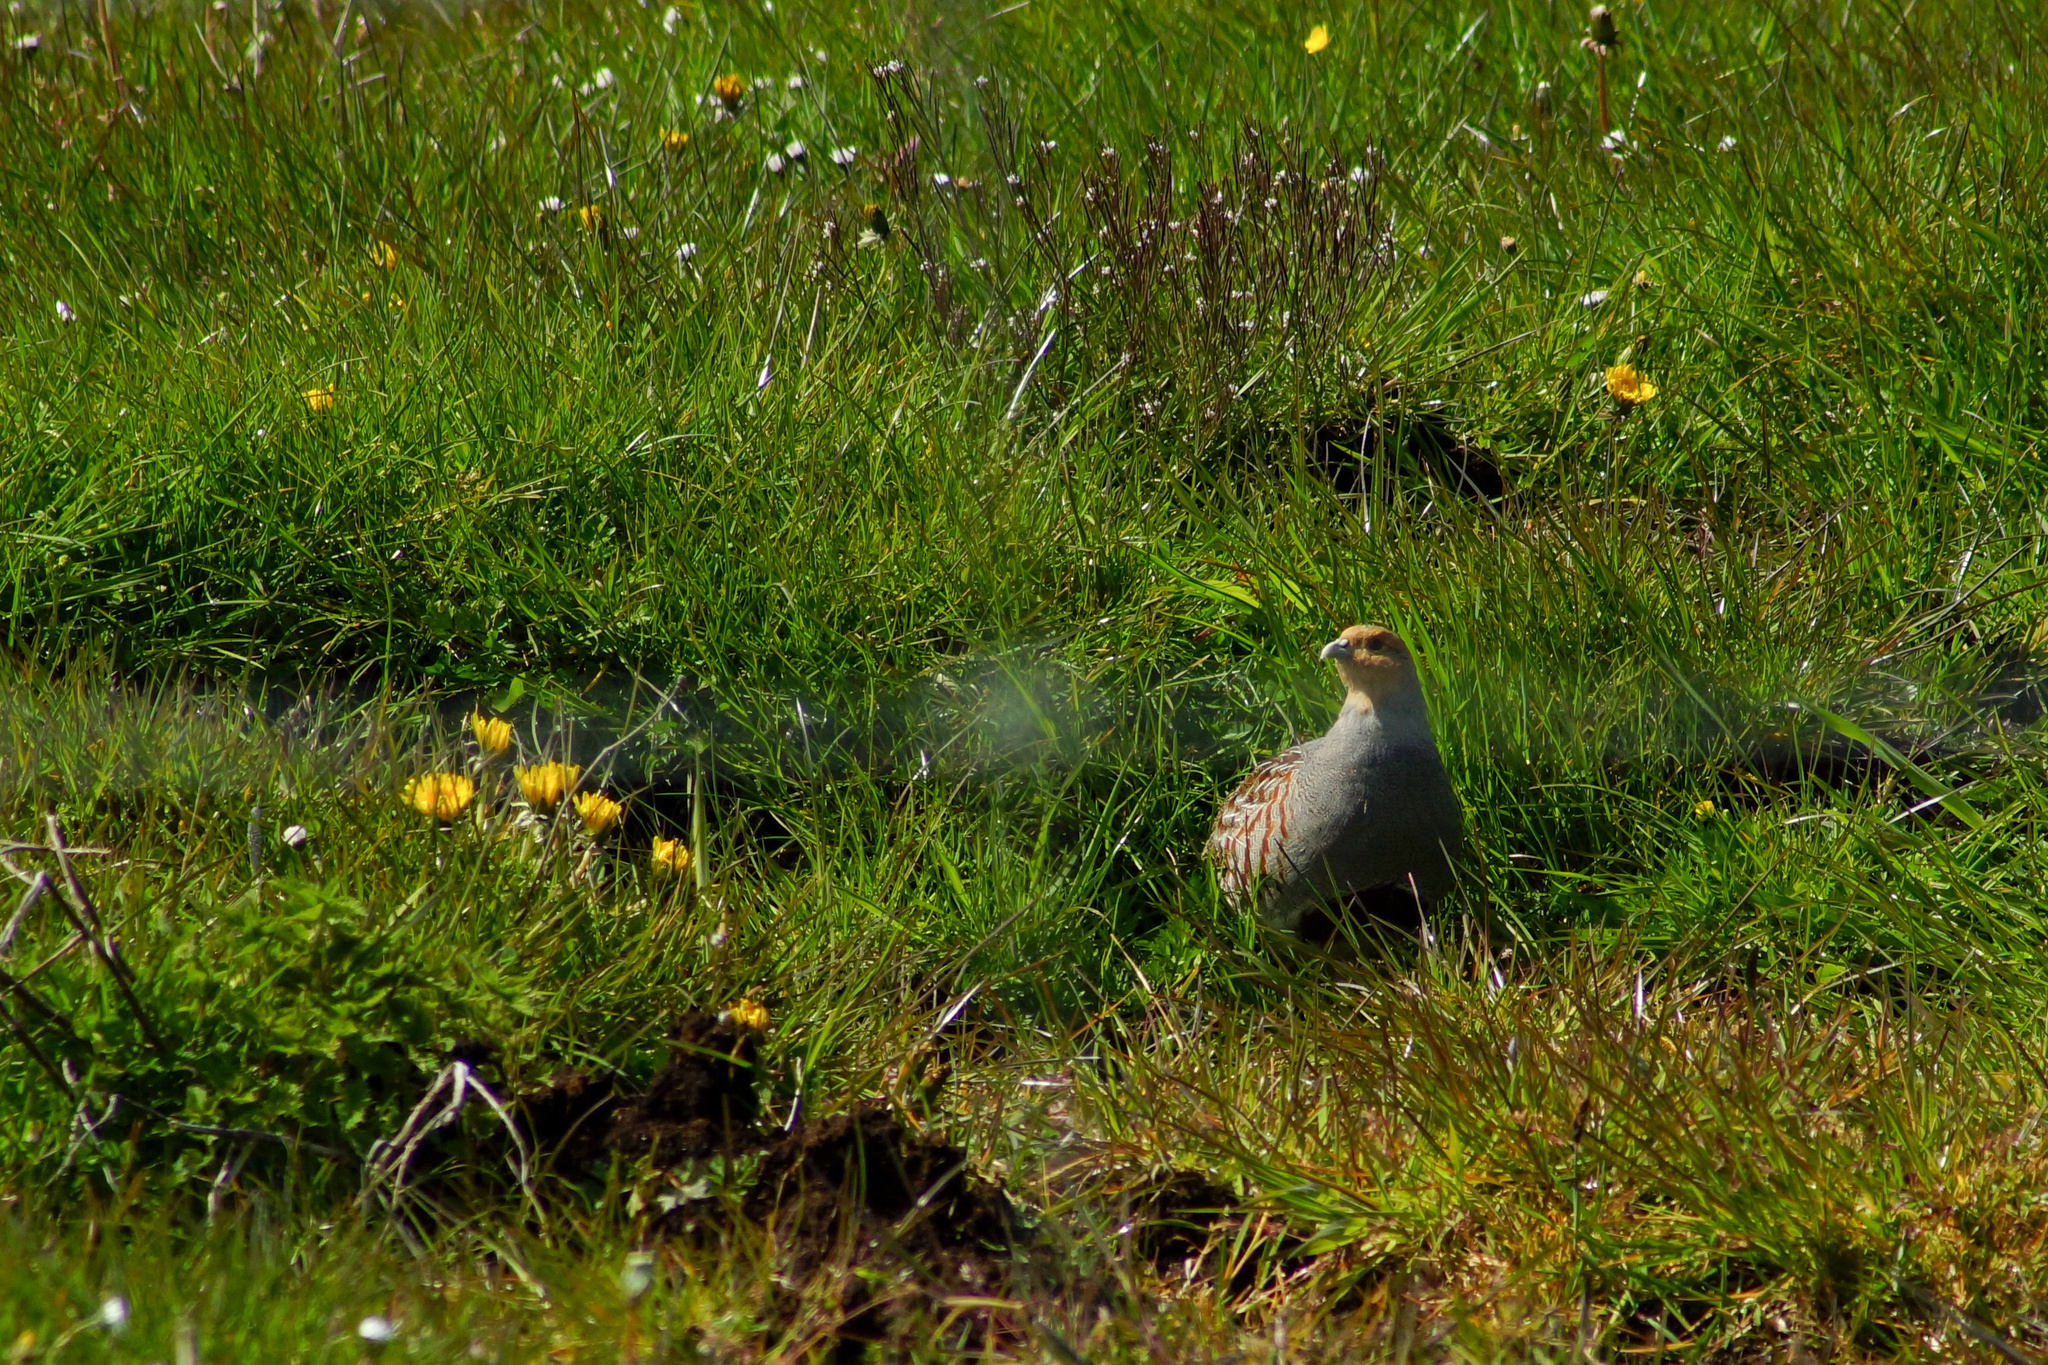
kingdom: Animalia
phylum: Chordata
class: Aves
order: Galliformes
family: Phasianidae
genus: Perdix
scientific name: Perdix perdix
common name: Grey partridge
